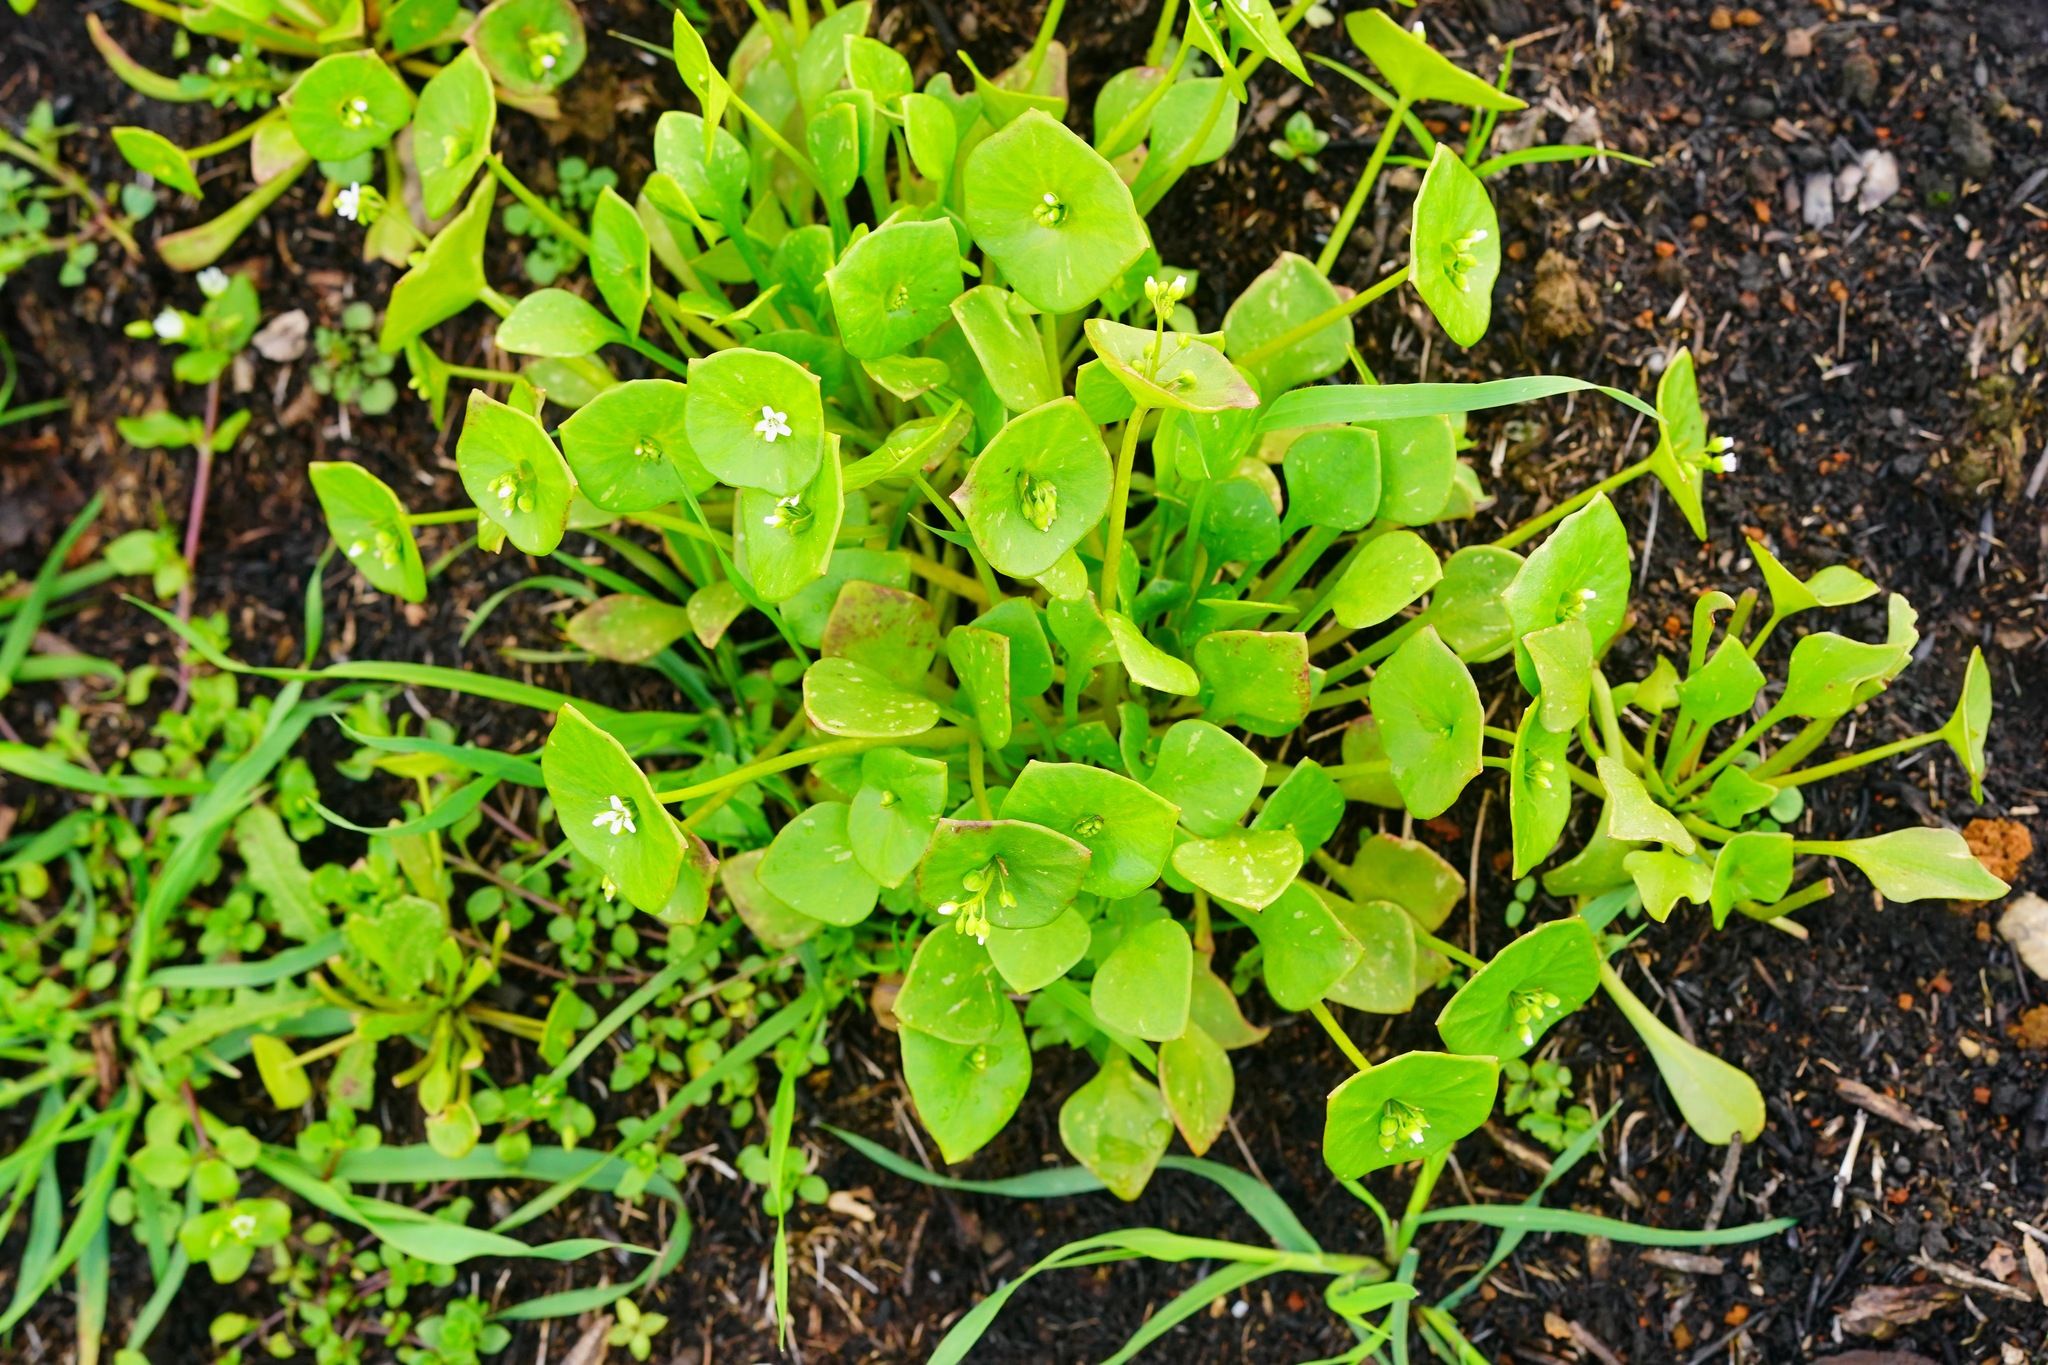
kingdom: Plantae
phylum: Tracheophyta
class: Magnoliopsida
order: Caryophyllales
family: Montiaceae
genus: Claytonia
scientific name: Claytonia perfoliata
